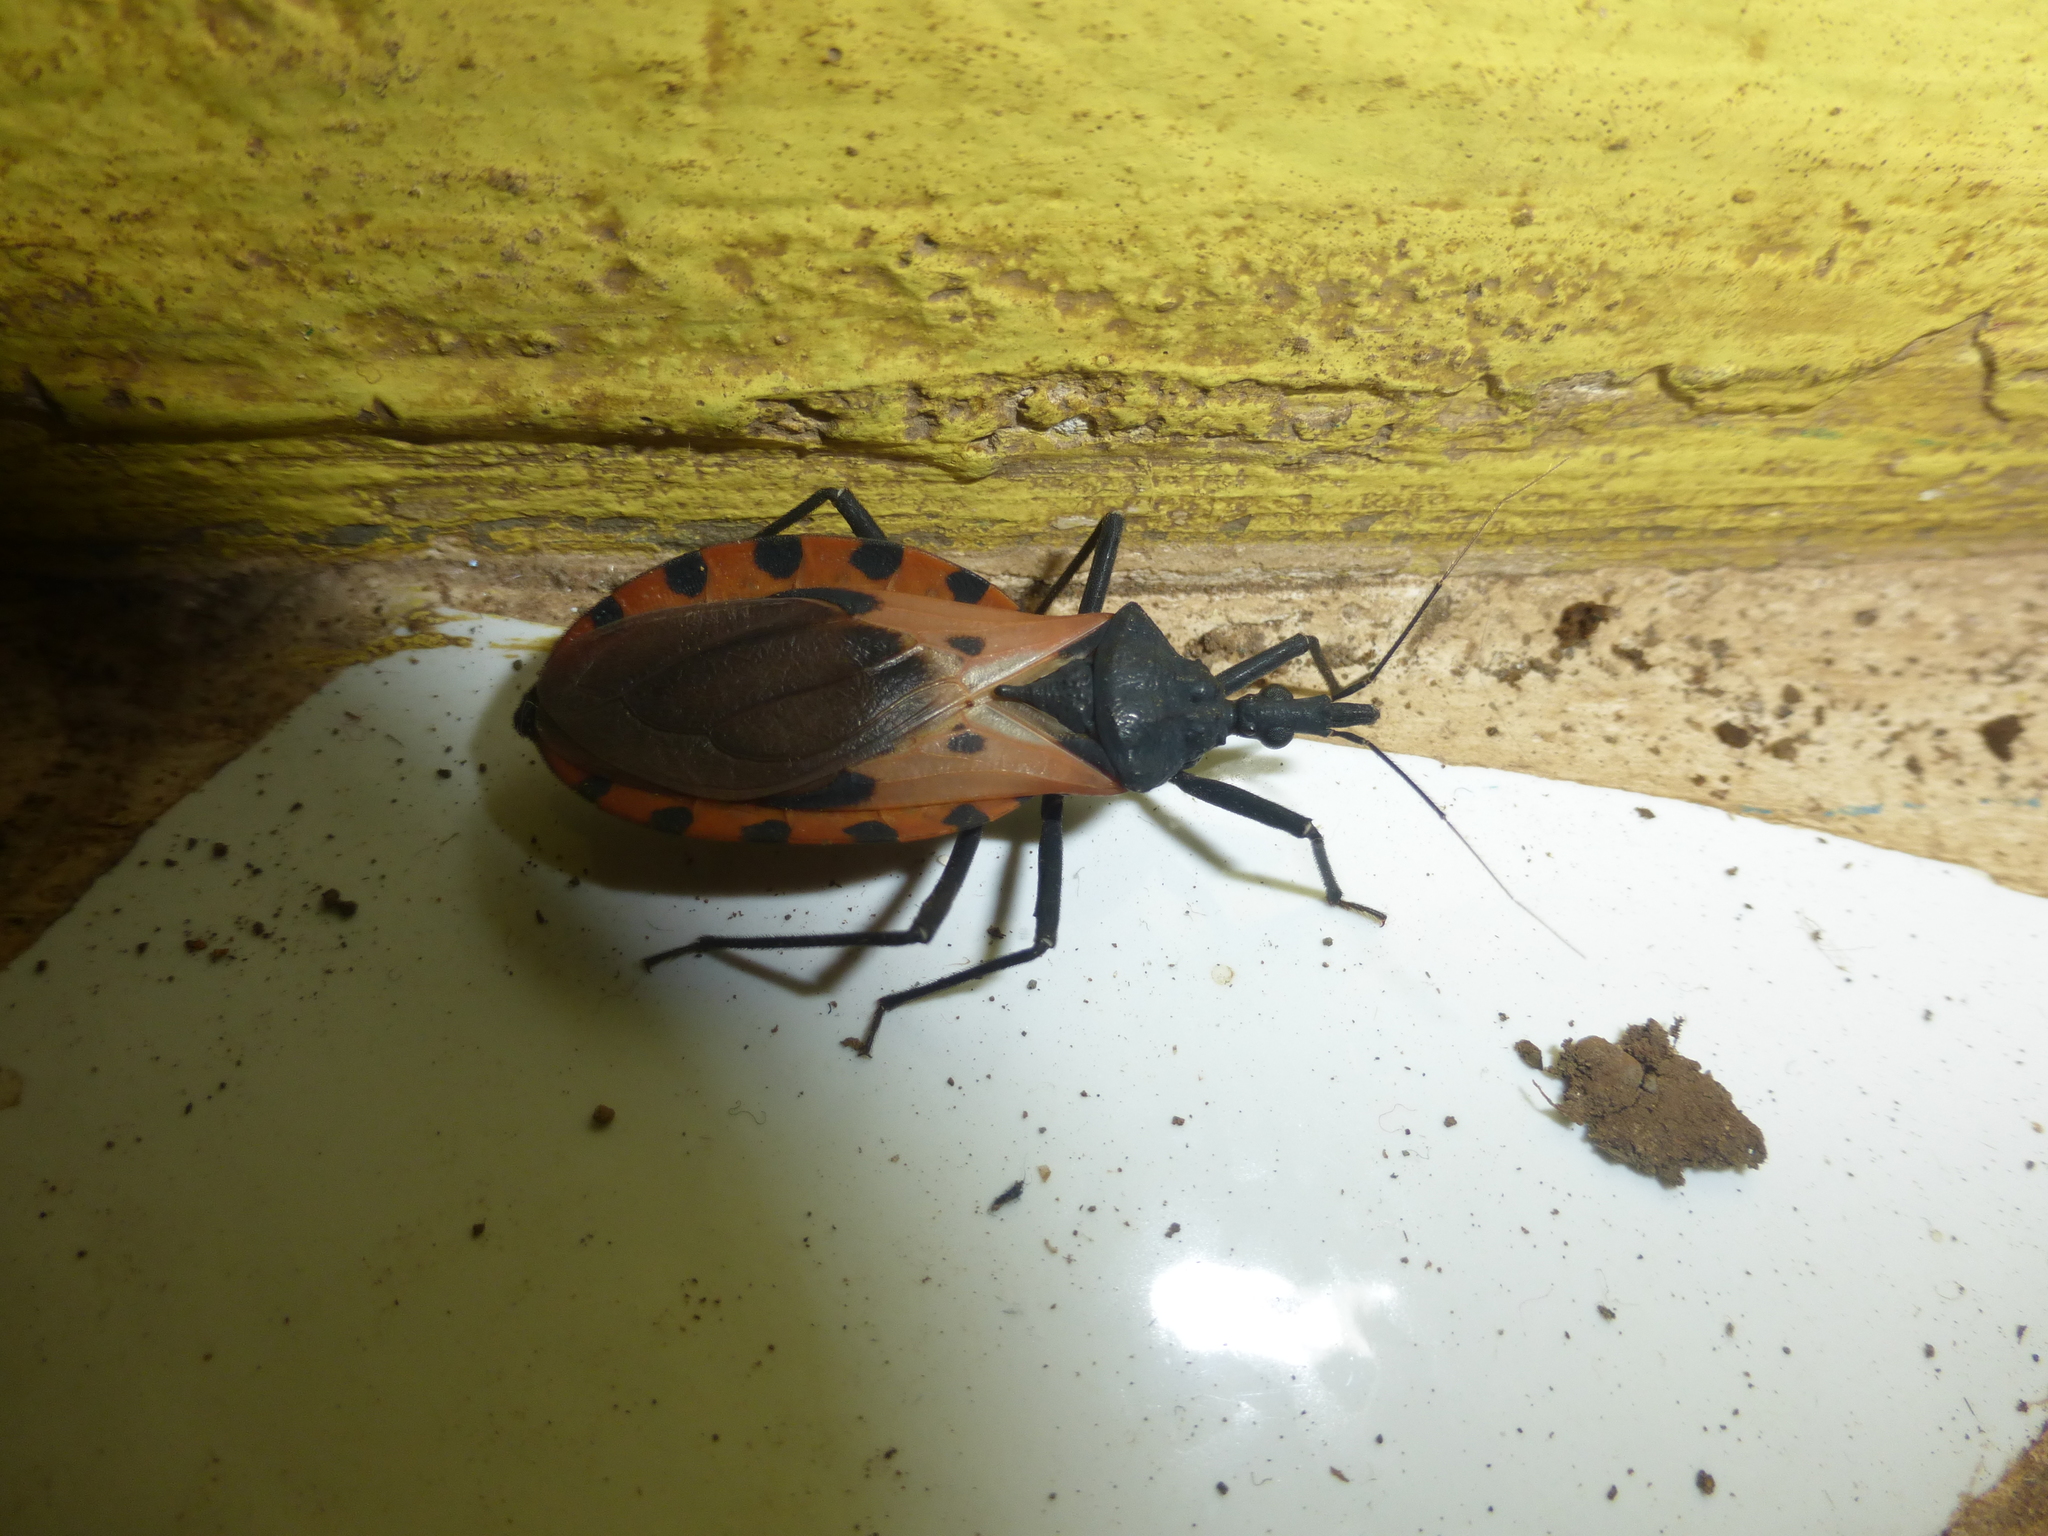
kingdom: Animalia
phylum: Arthropoda
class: Insecta
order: Hemiptera
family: Reduviidae
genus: Meccus
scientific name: Meccus dimidiatus
